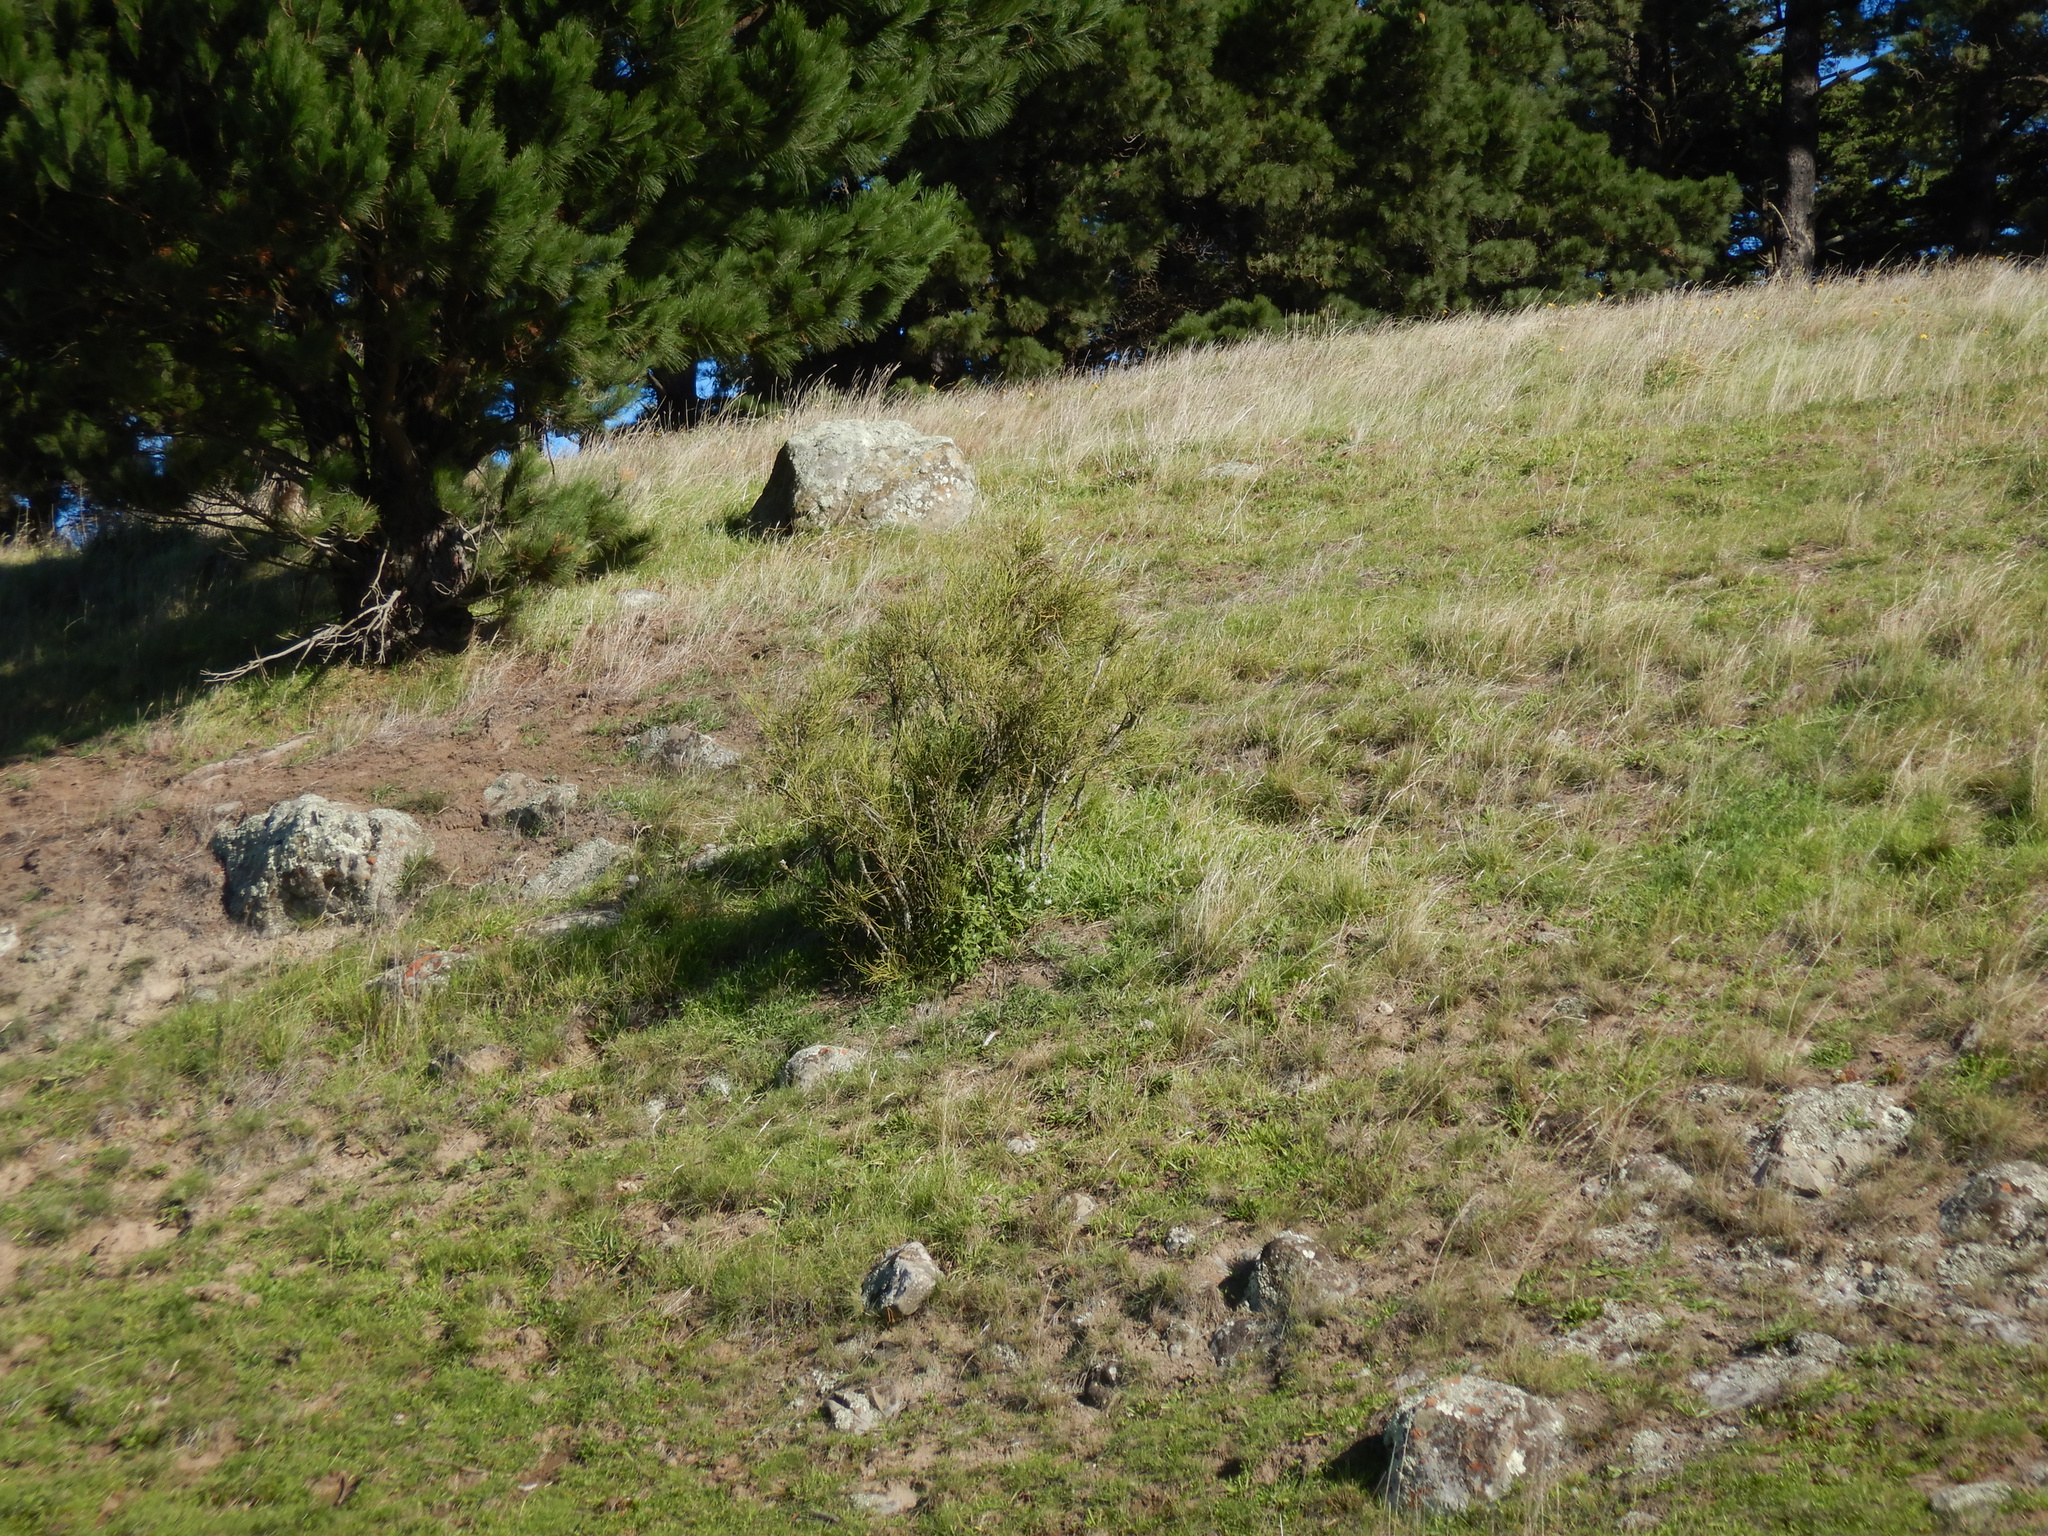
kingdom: Plantae
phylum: Tracheophyta
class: Magnoliopsida
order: Fabales
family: Fabaceae
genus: Carmichaelia
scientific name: Carmichaelia australis
